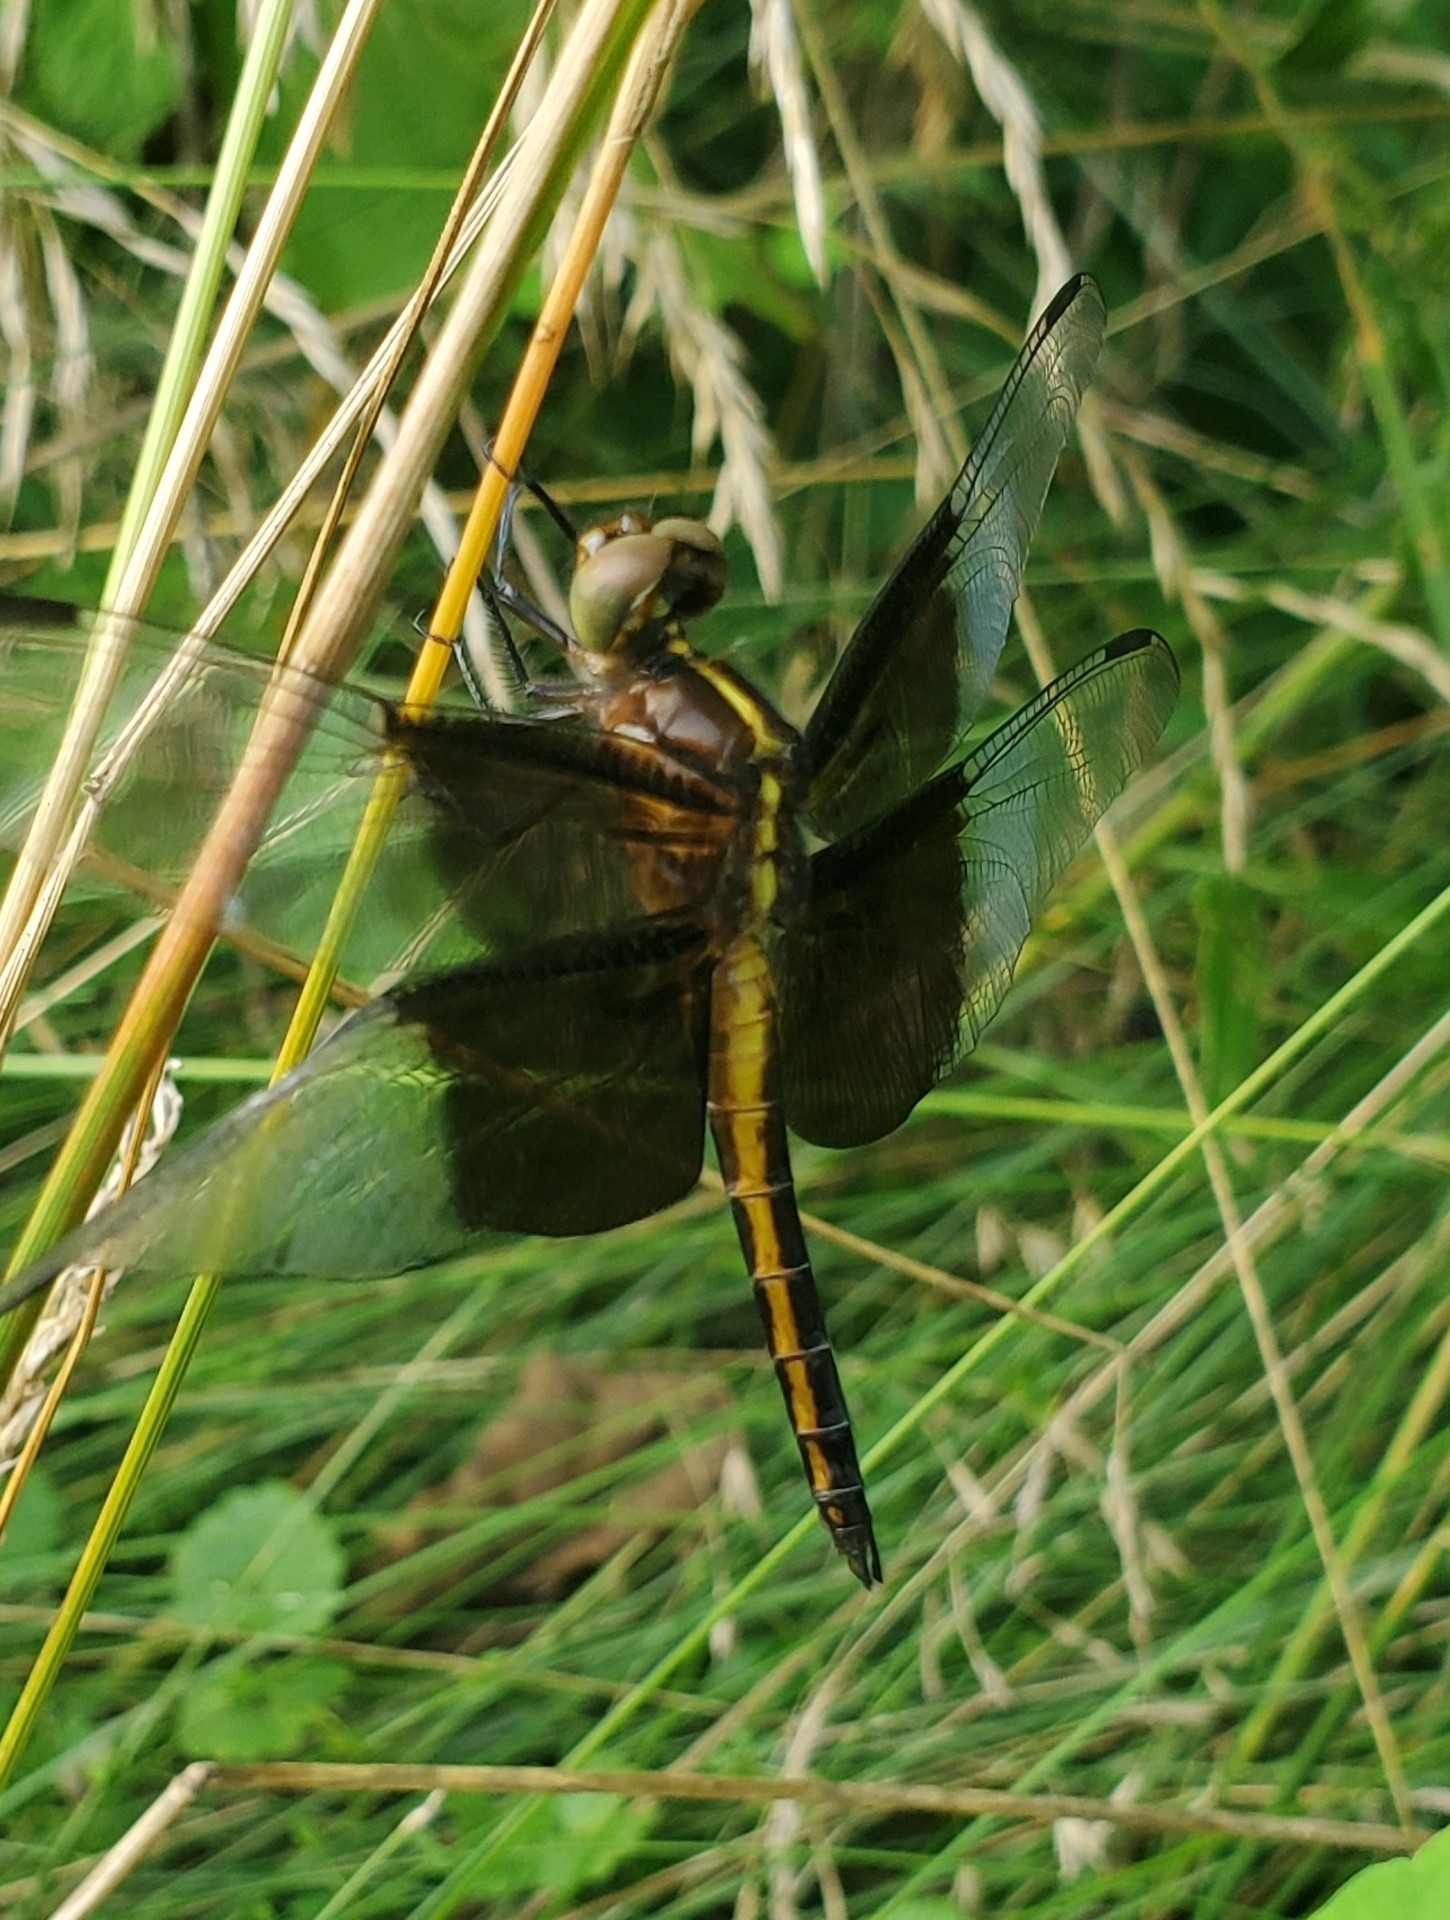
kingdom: Animalia
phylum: Arthropoda
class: Insecta
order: Odonata
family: Libellulidae
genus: Libellula
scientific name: Libellula luctuosa
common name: Widow skimmer
